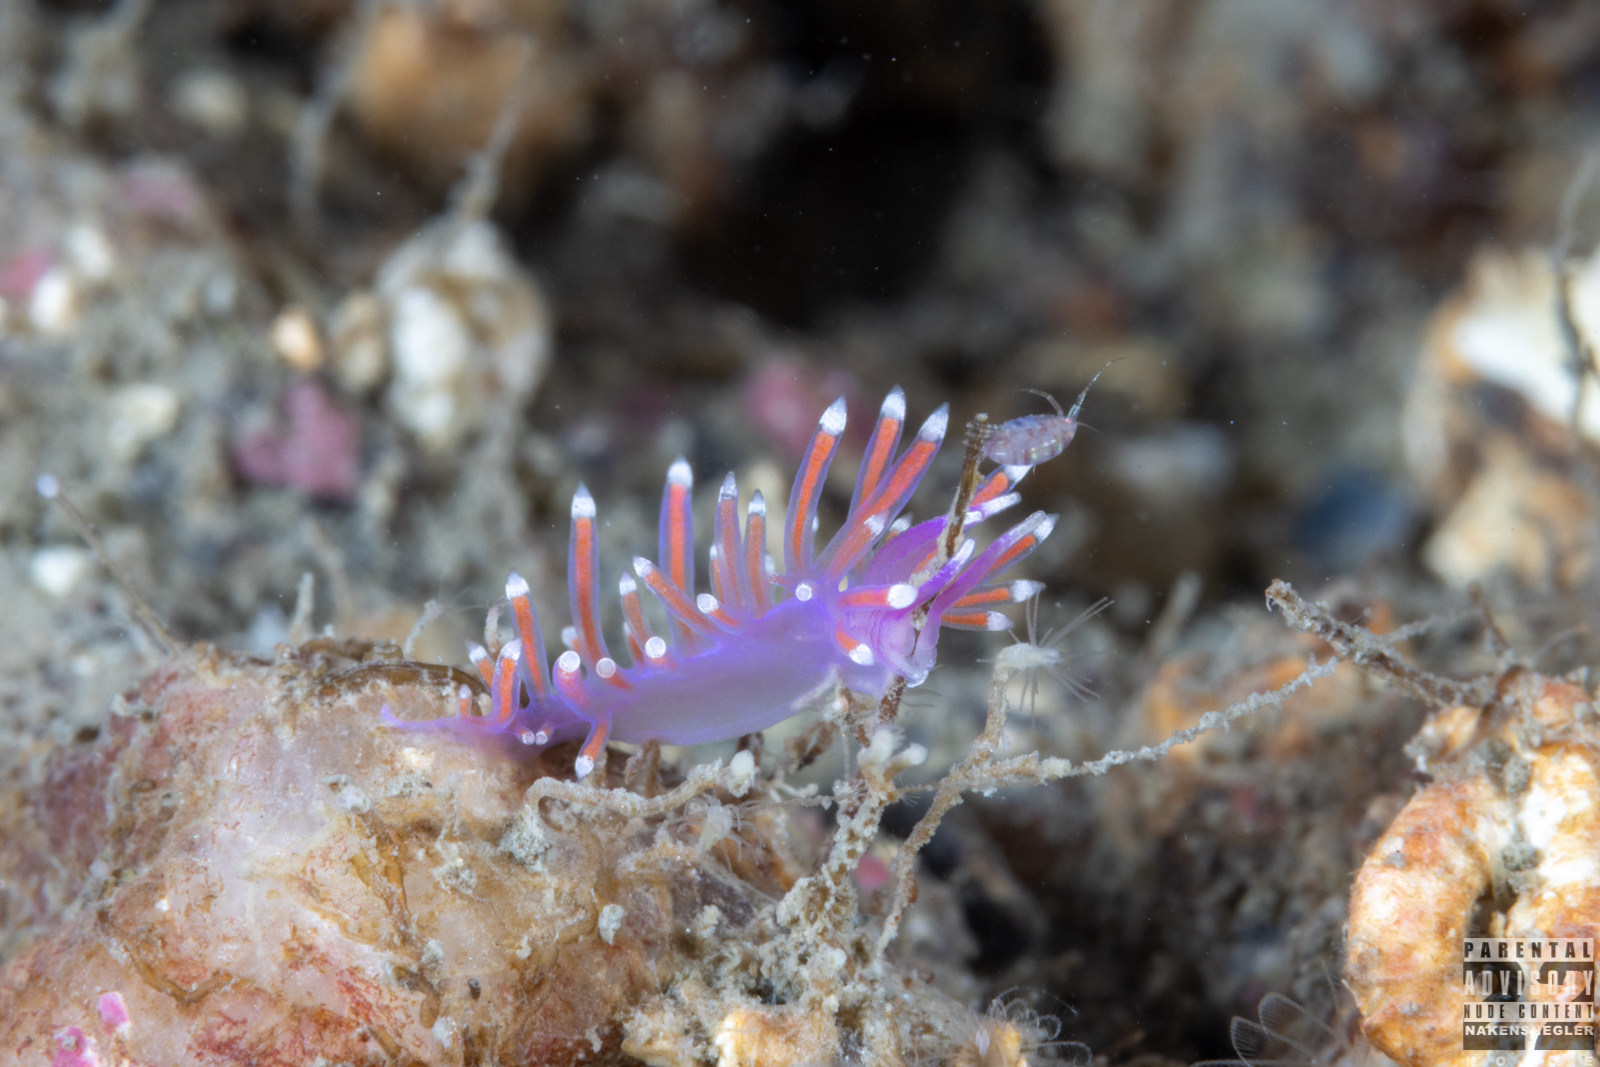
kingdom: Animalia
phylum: Mollusca
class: Gastropoda
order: Nudibranchia
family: Flabellinidae
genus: Edmundsella
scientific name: Edmundsella pedata
